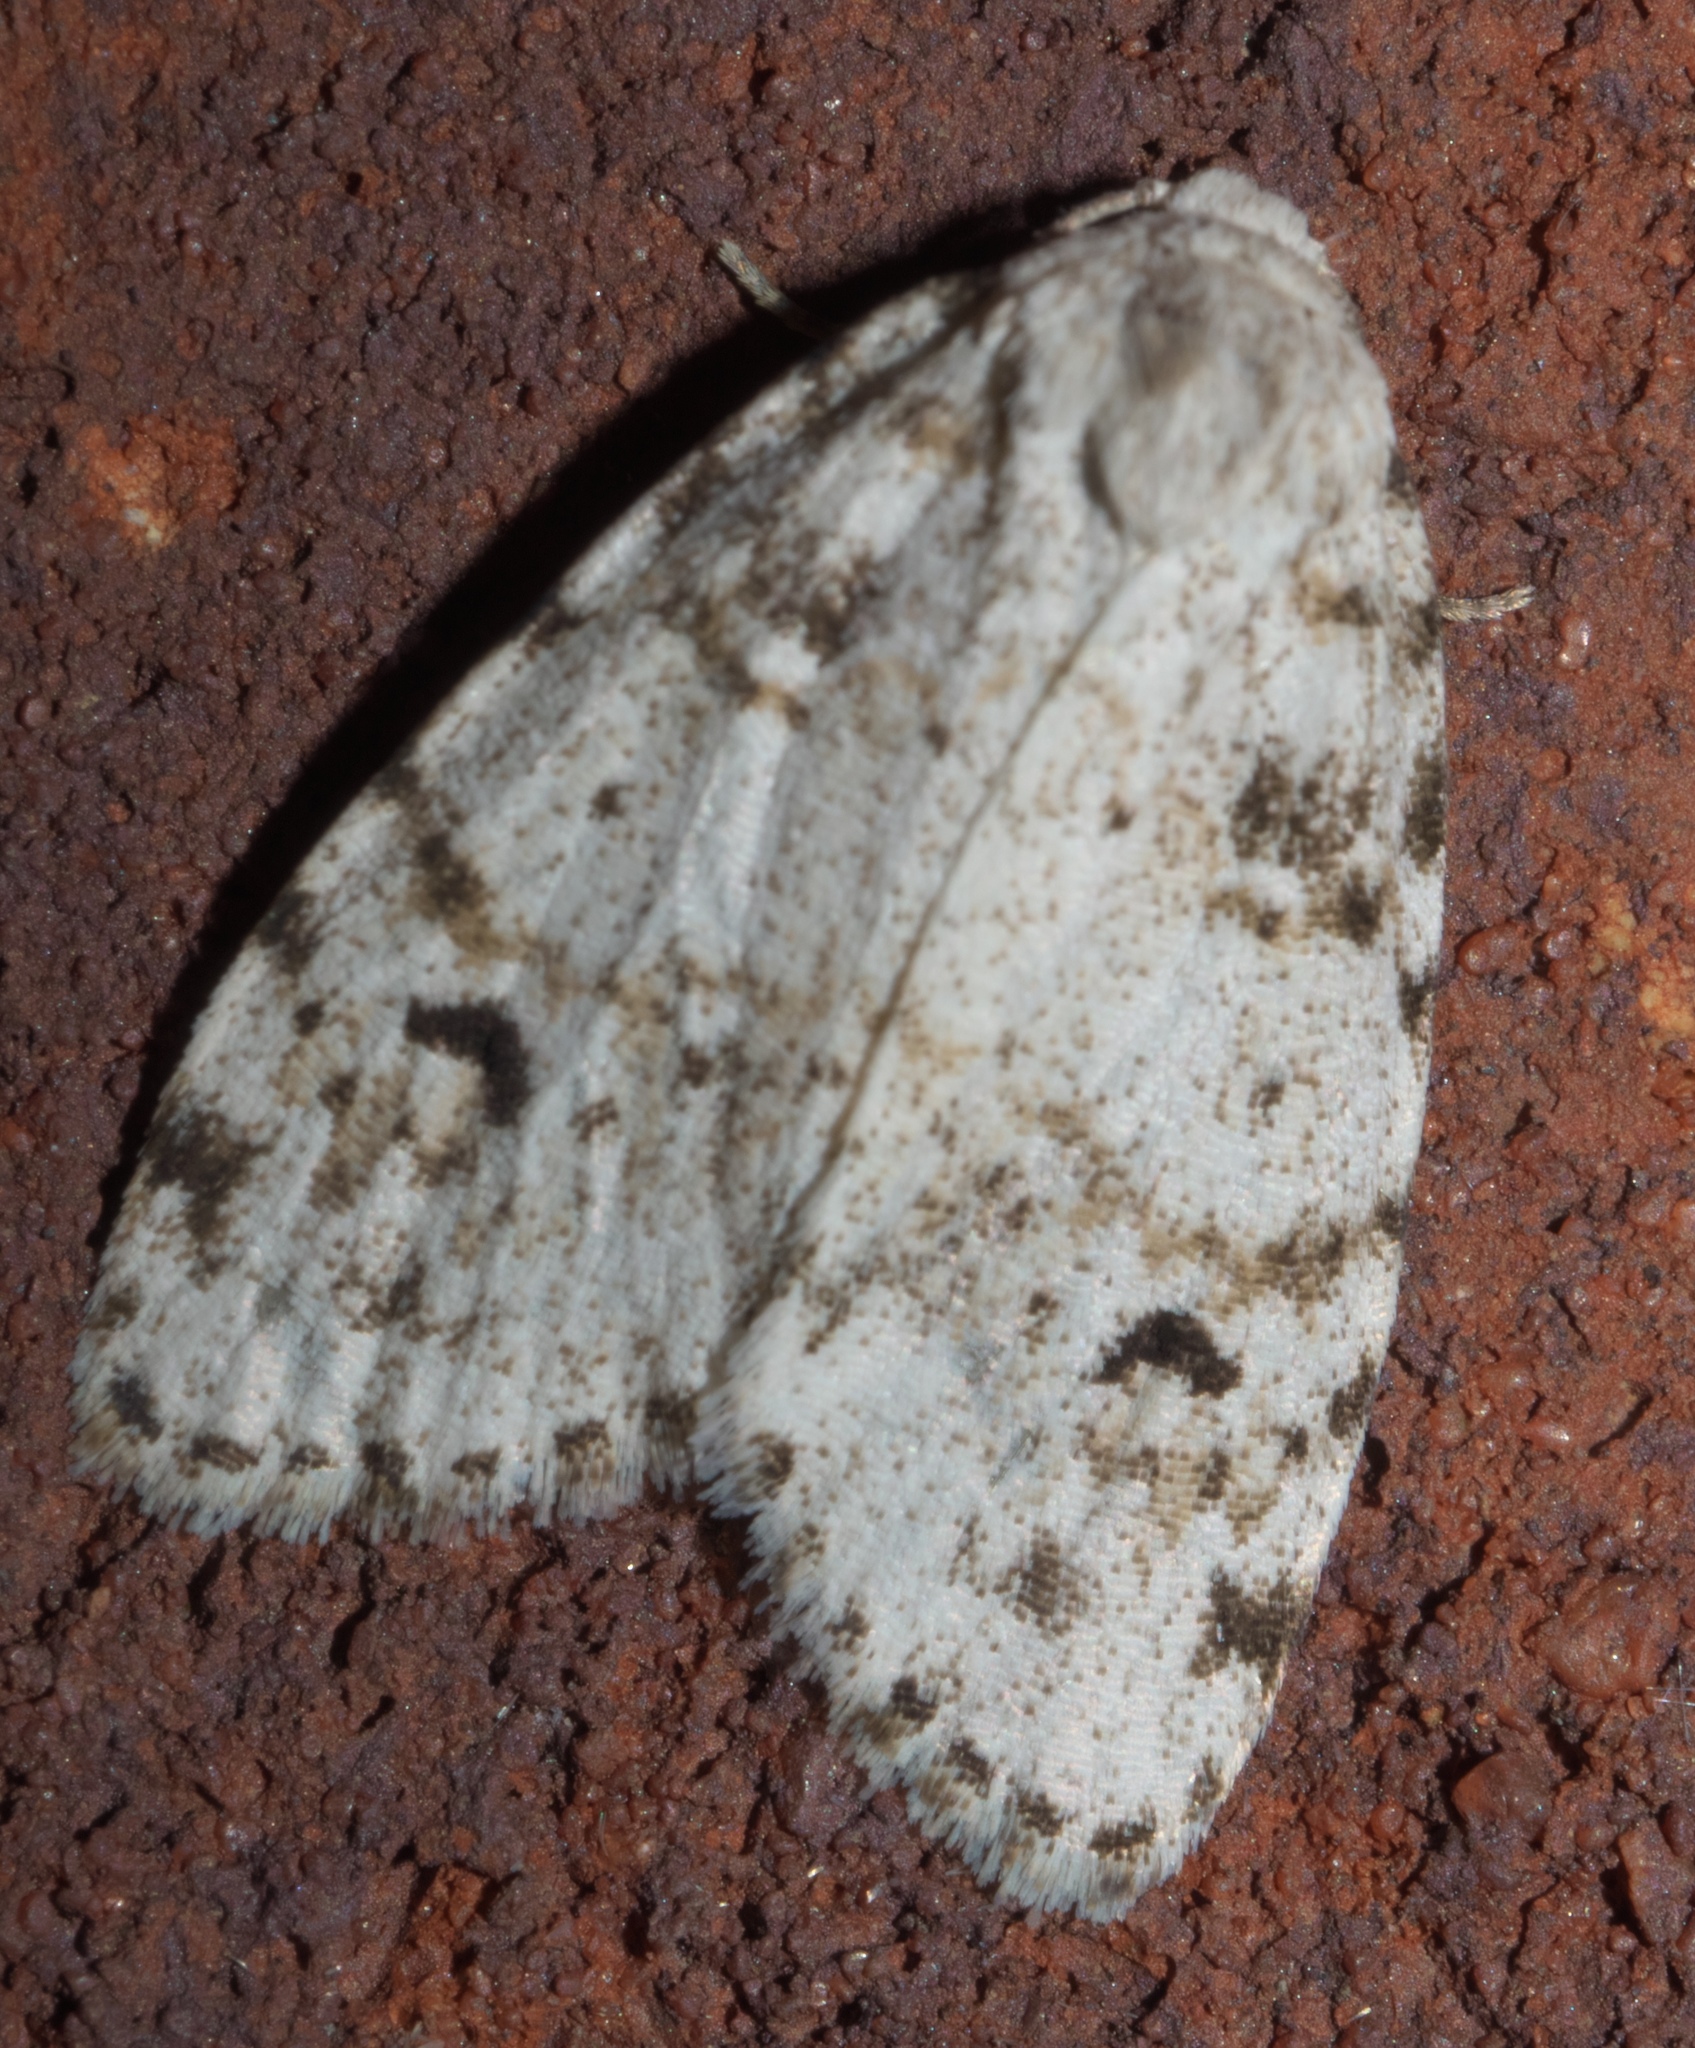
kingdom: Animalia
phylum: Arthropoda
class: Insecta
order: Lepidoptera
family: Erebidae
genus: Clemensia
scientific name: Clemensia albata
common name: Little white lichen moth
